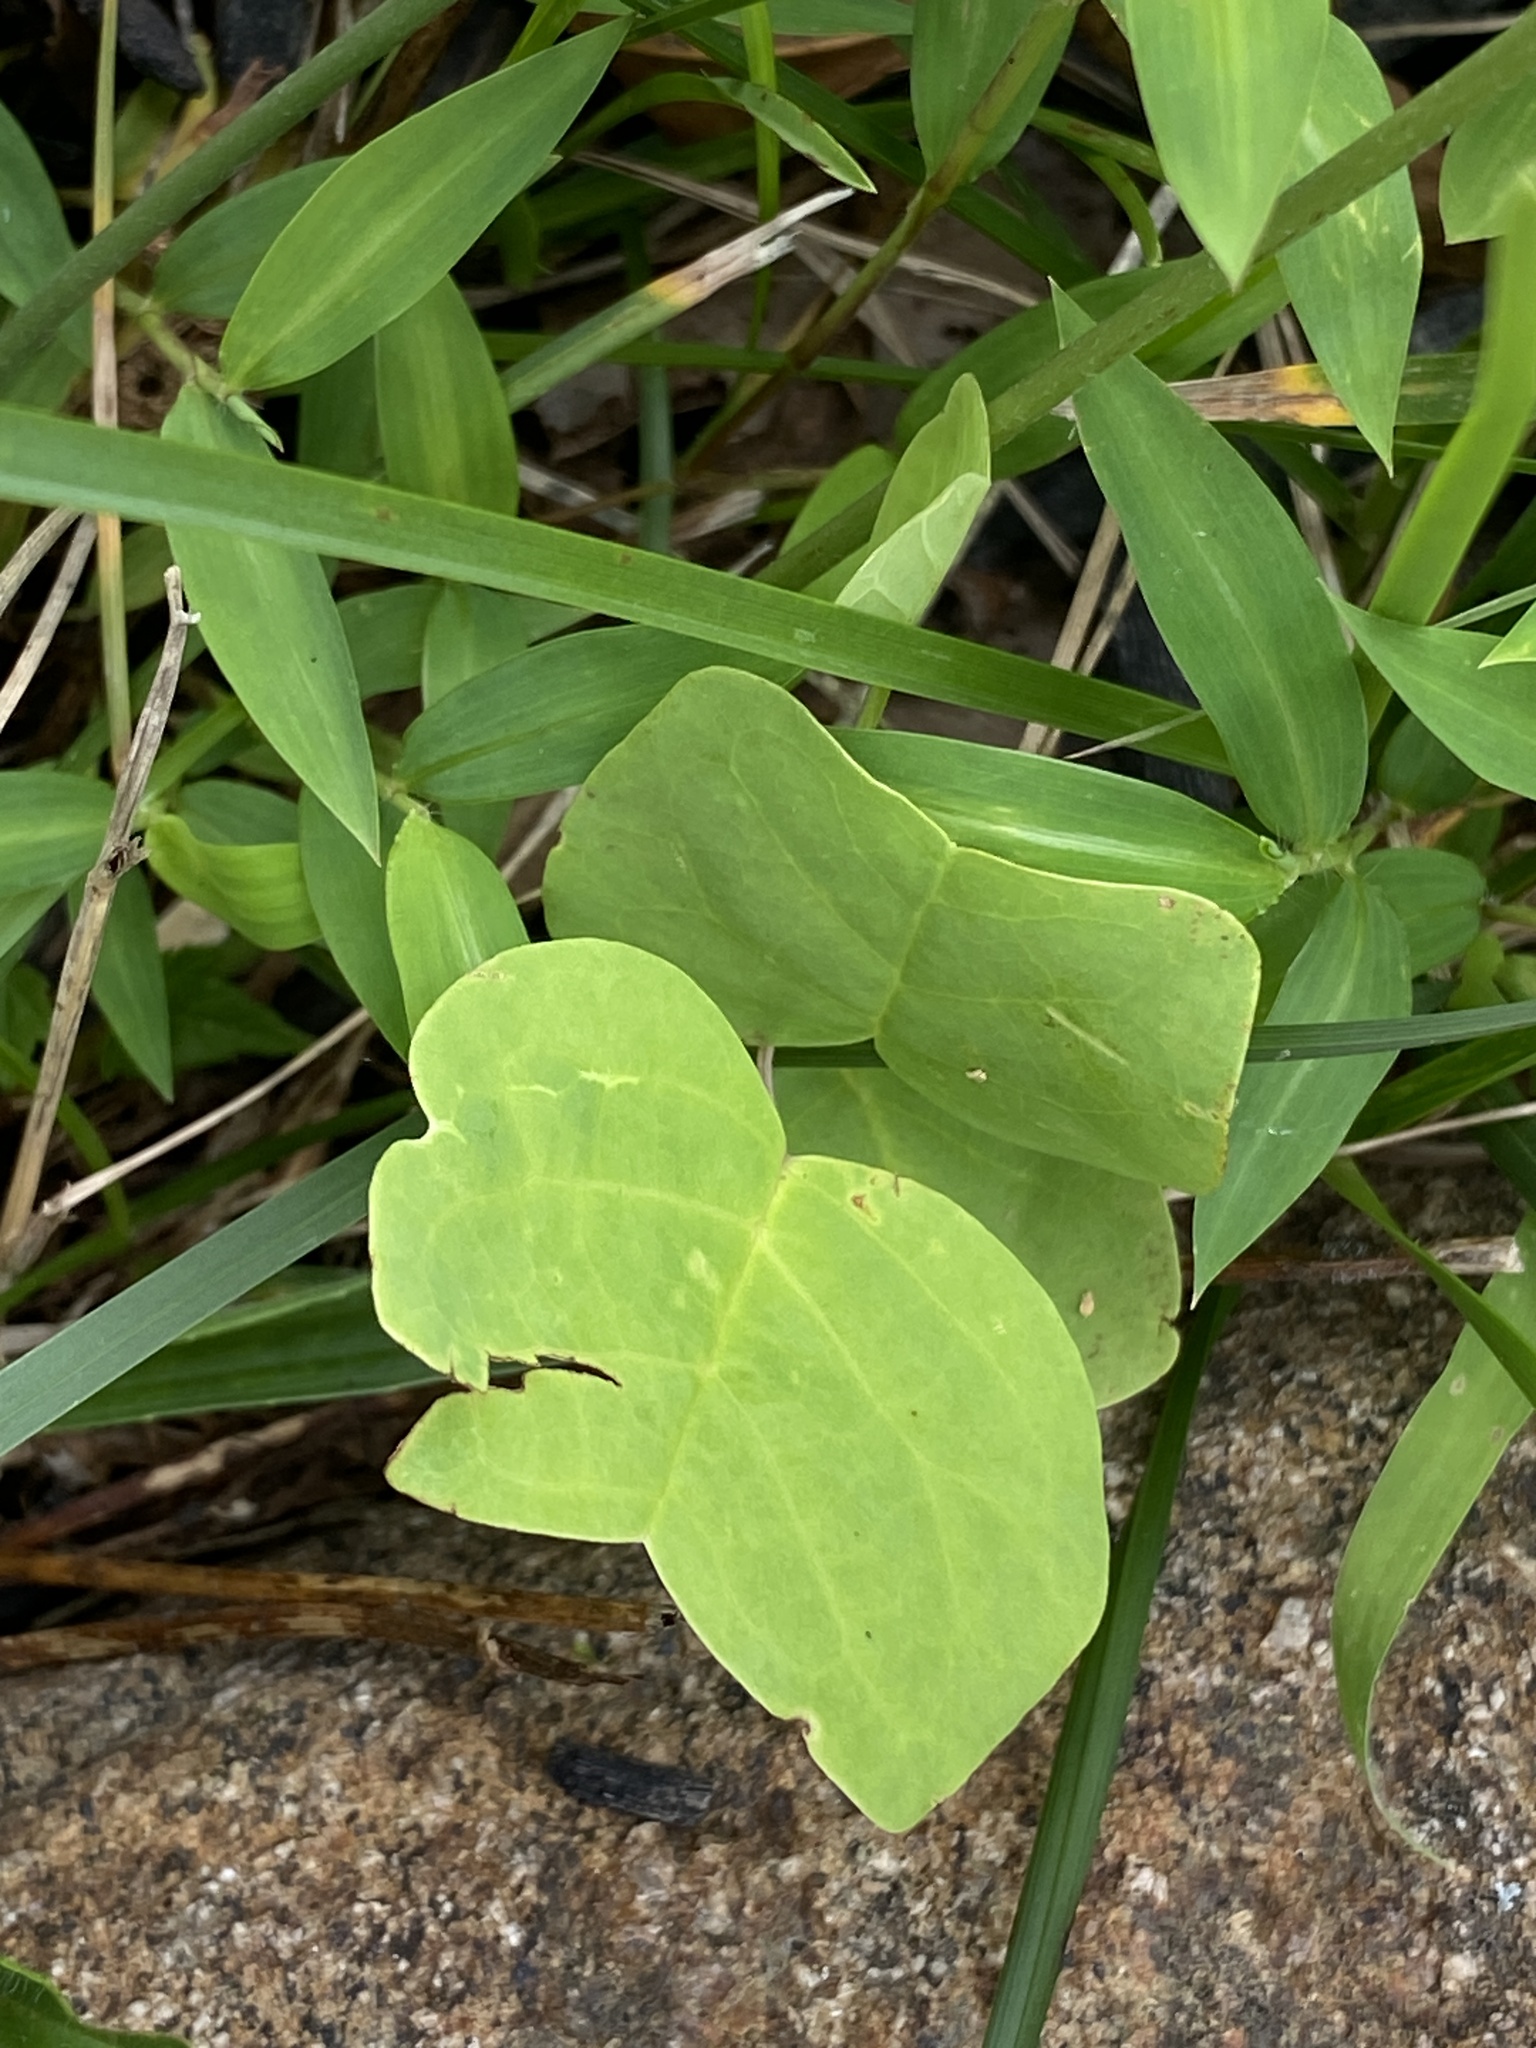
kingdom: Plantae
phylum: Tracheophyta
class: Magnoliopsida
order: Magnoliales
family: Magnoliaceae
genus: Liriodendron
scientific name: Liriodendron tulipifera
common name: Tulip tree
